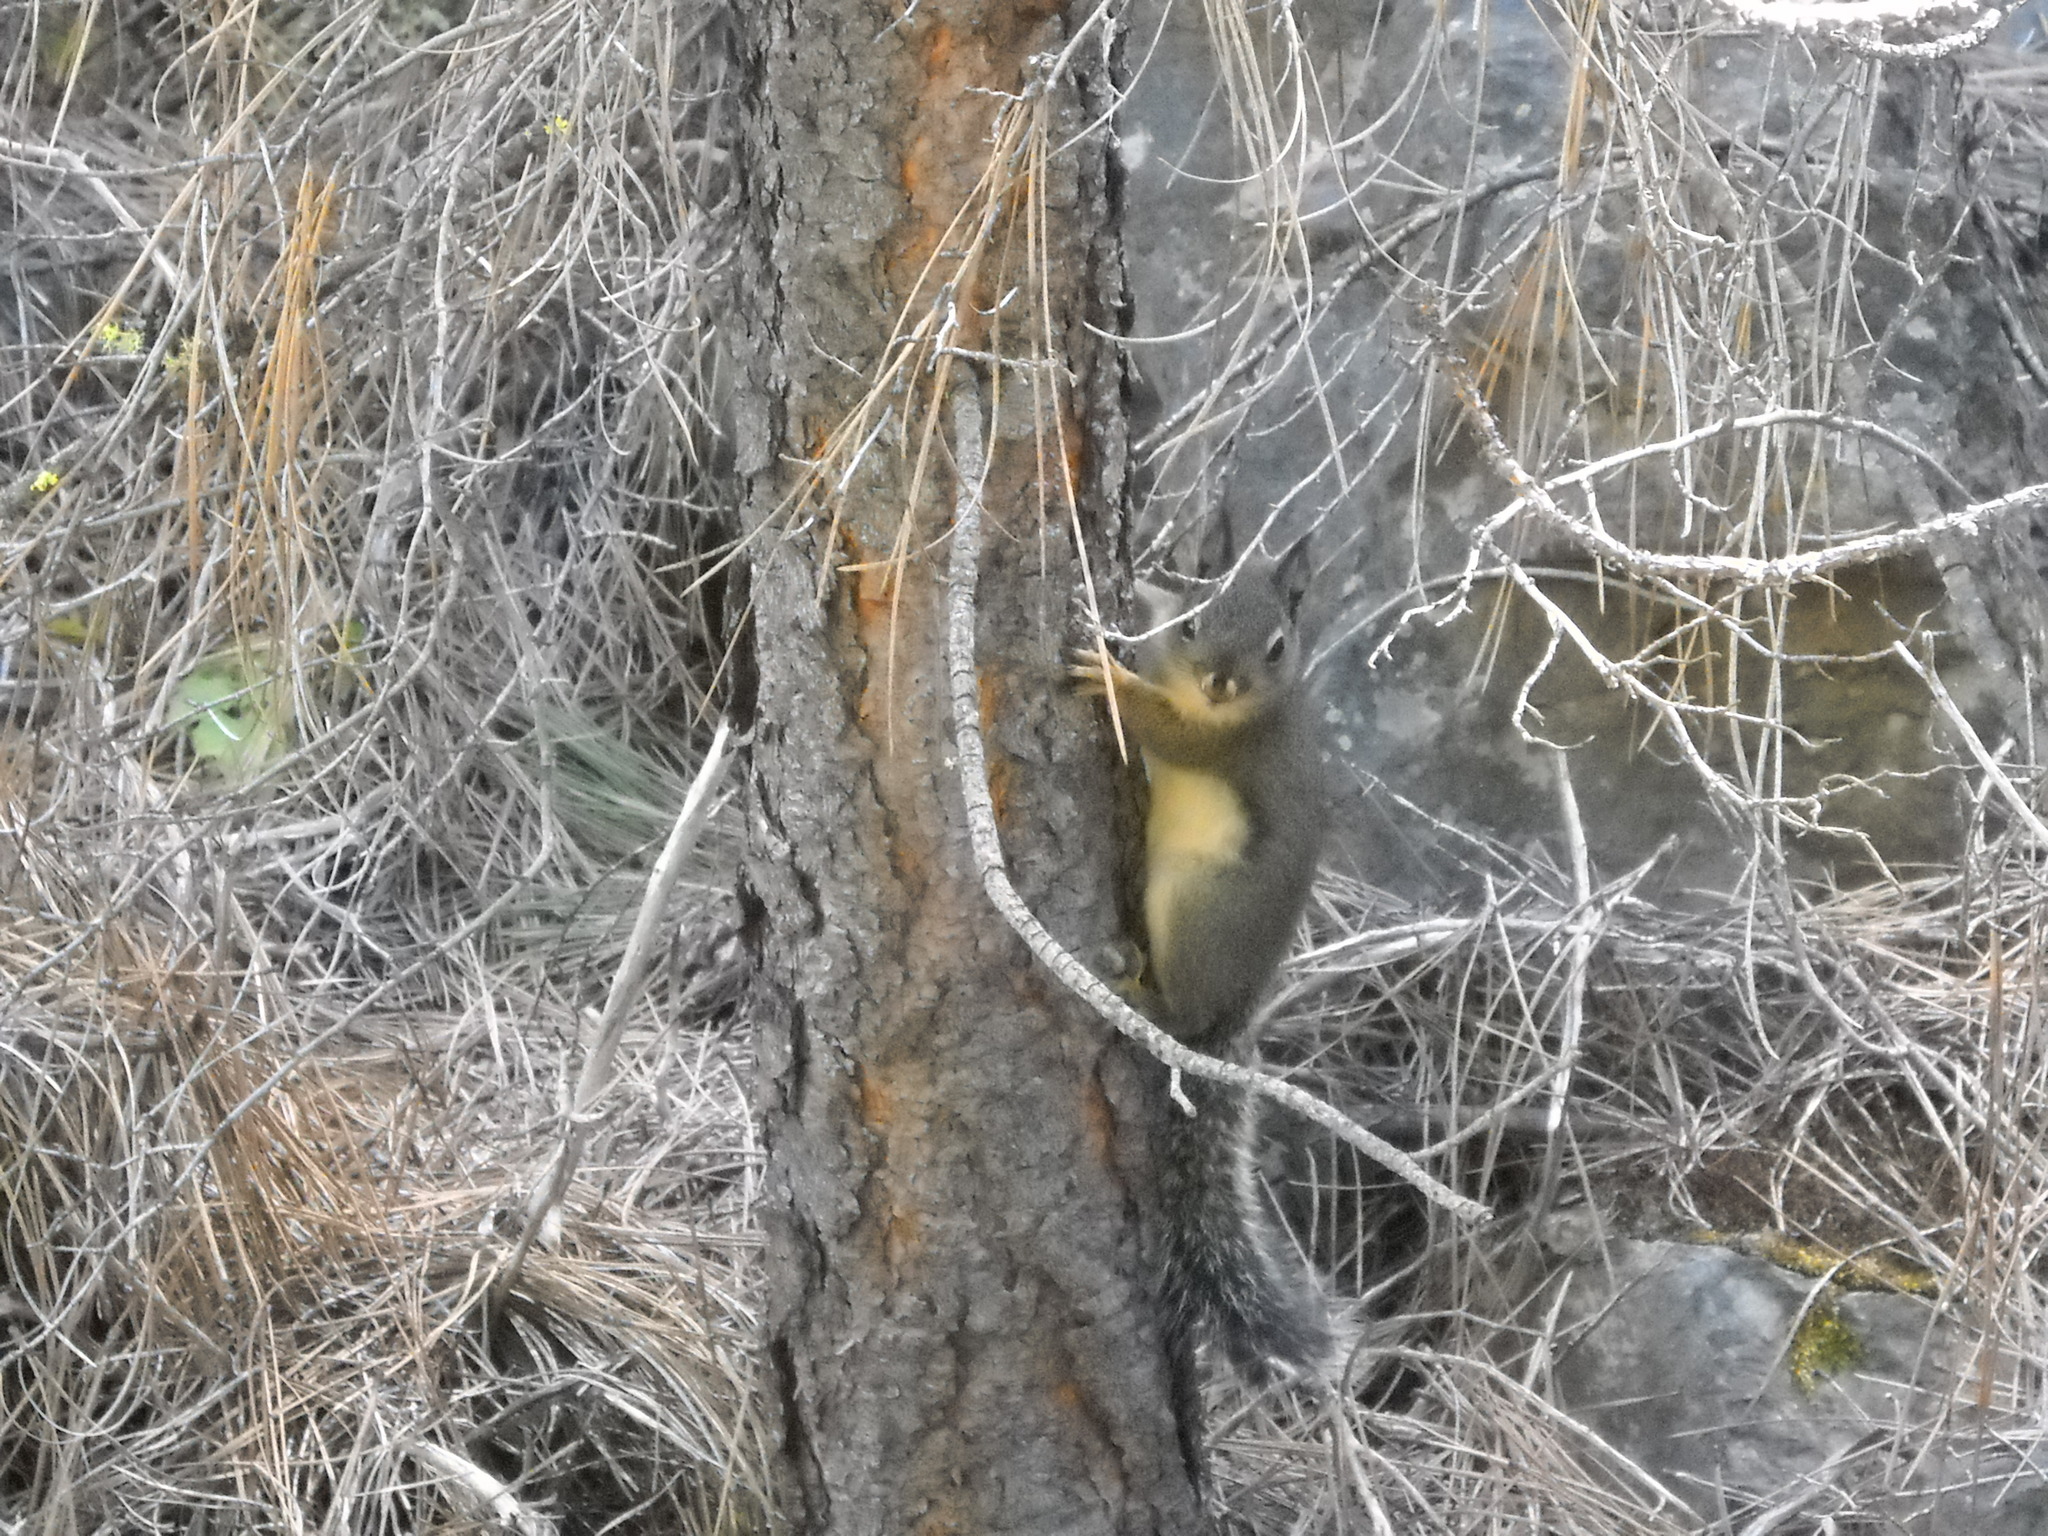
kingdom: Animalia
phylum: Chordata
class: Mammalia
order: Rodentia
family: Sciuridae
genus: Tamiasciurus
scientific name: Tamiasciurus douglasii
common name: Douglas's squirrel
